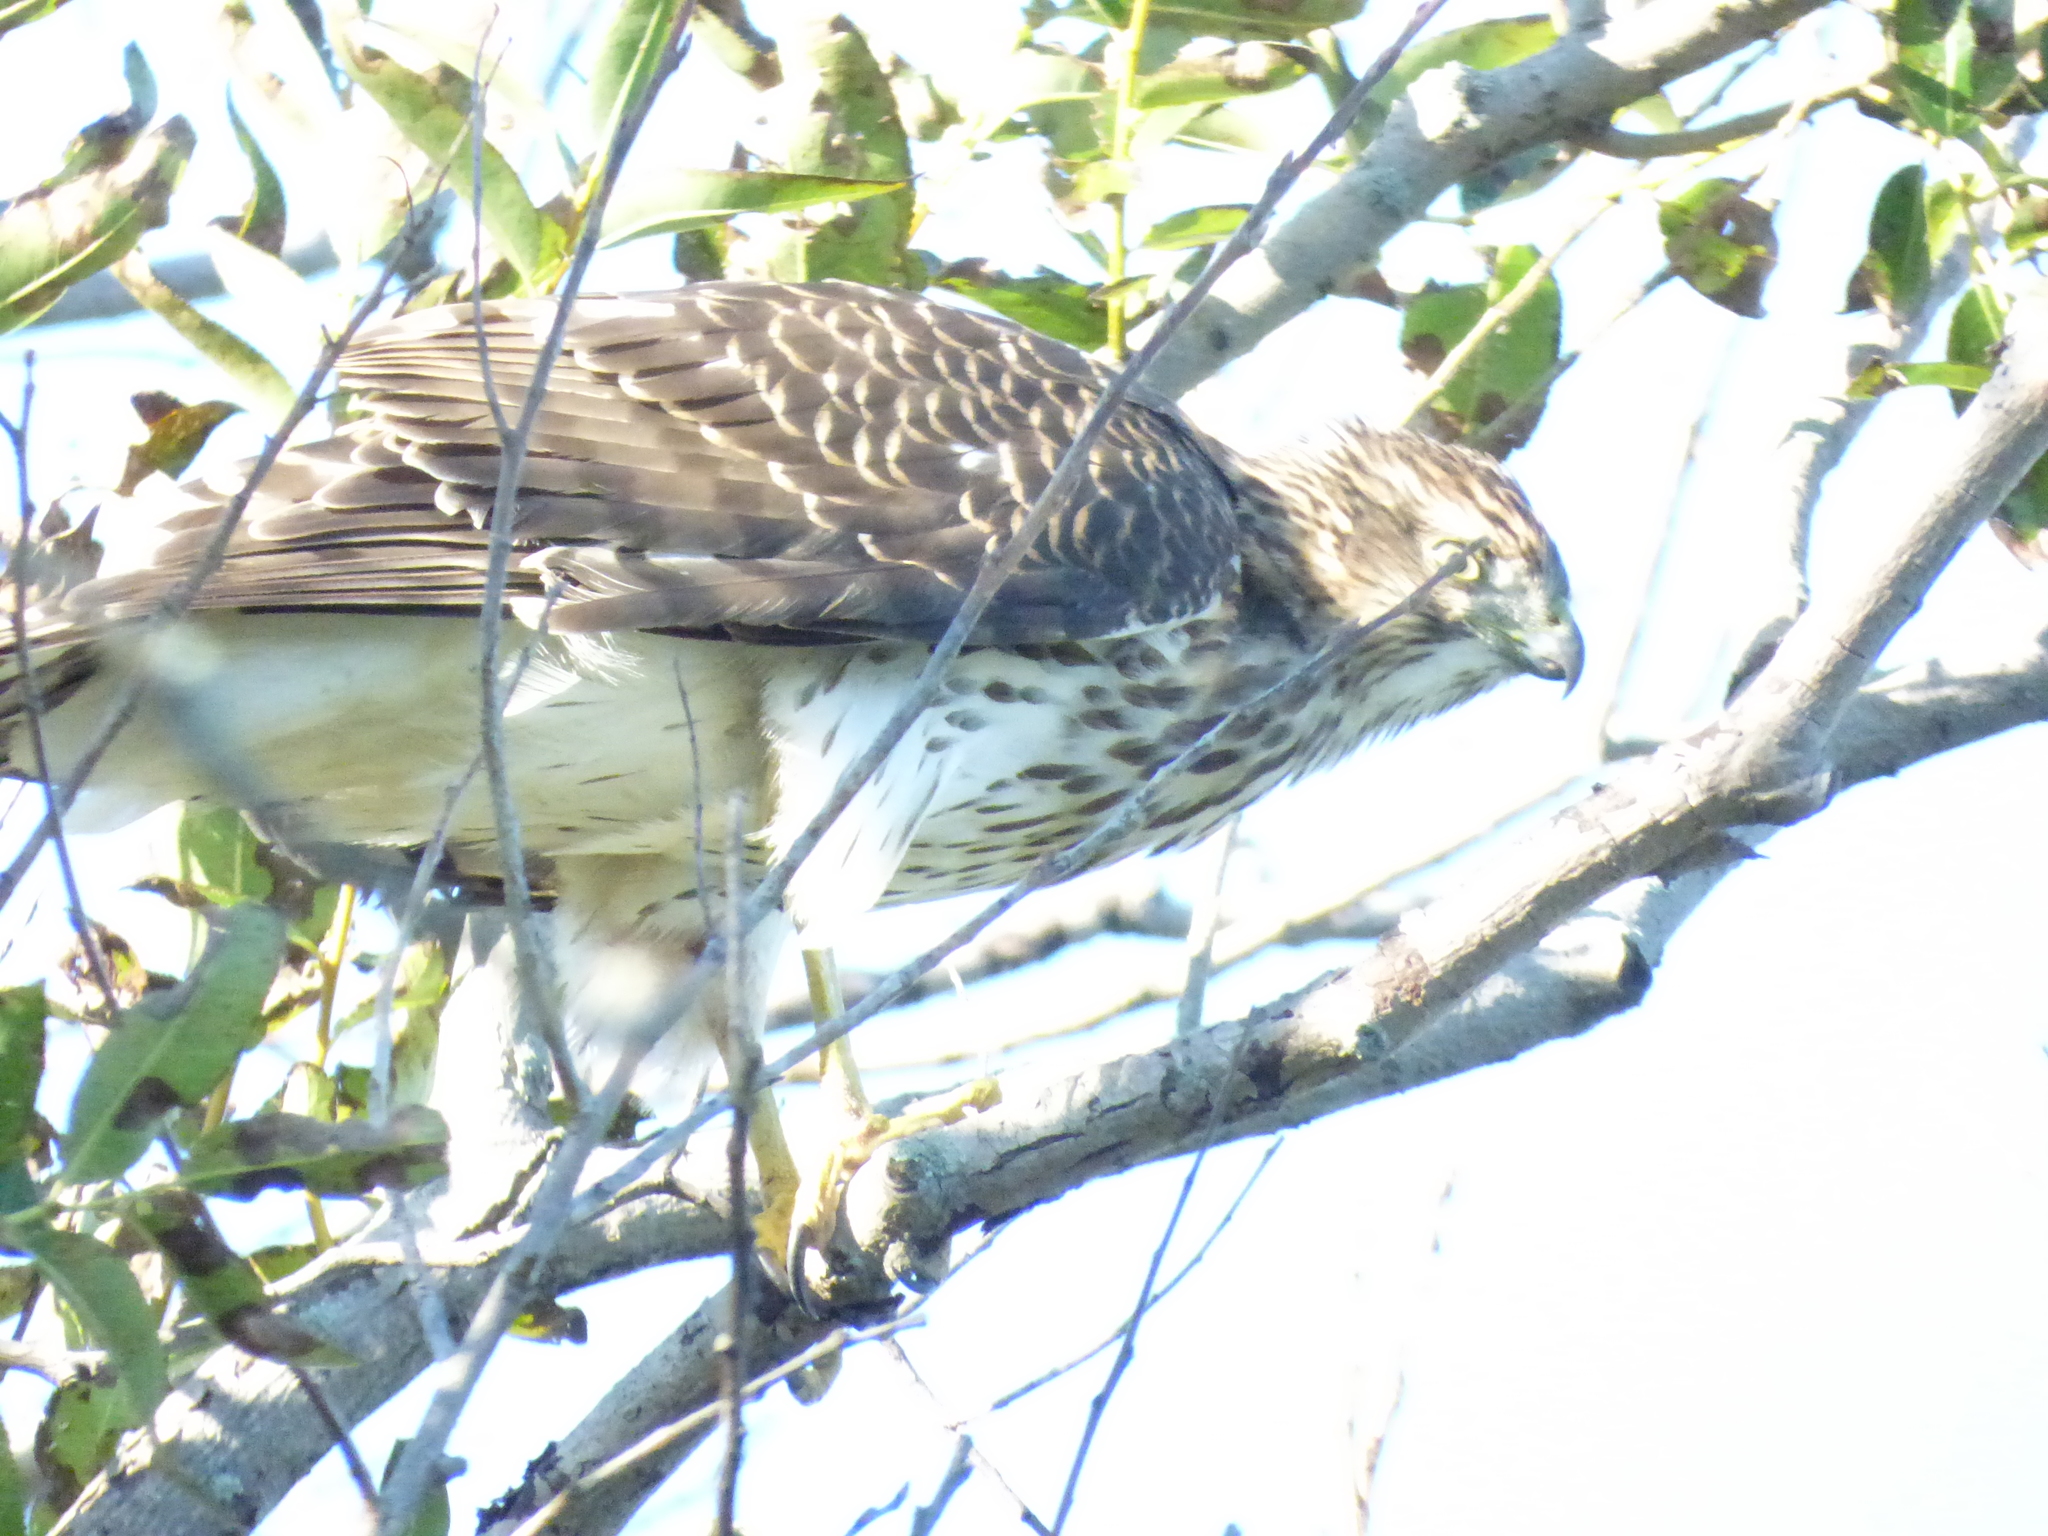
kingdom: Animalia
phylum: Chordata
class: Aves
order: Accipitriformes
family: Accipitridae
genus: Accipiter
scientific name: Accipiter cooperii
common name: Cooper's hawk
